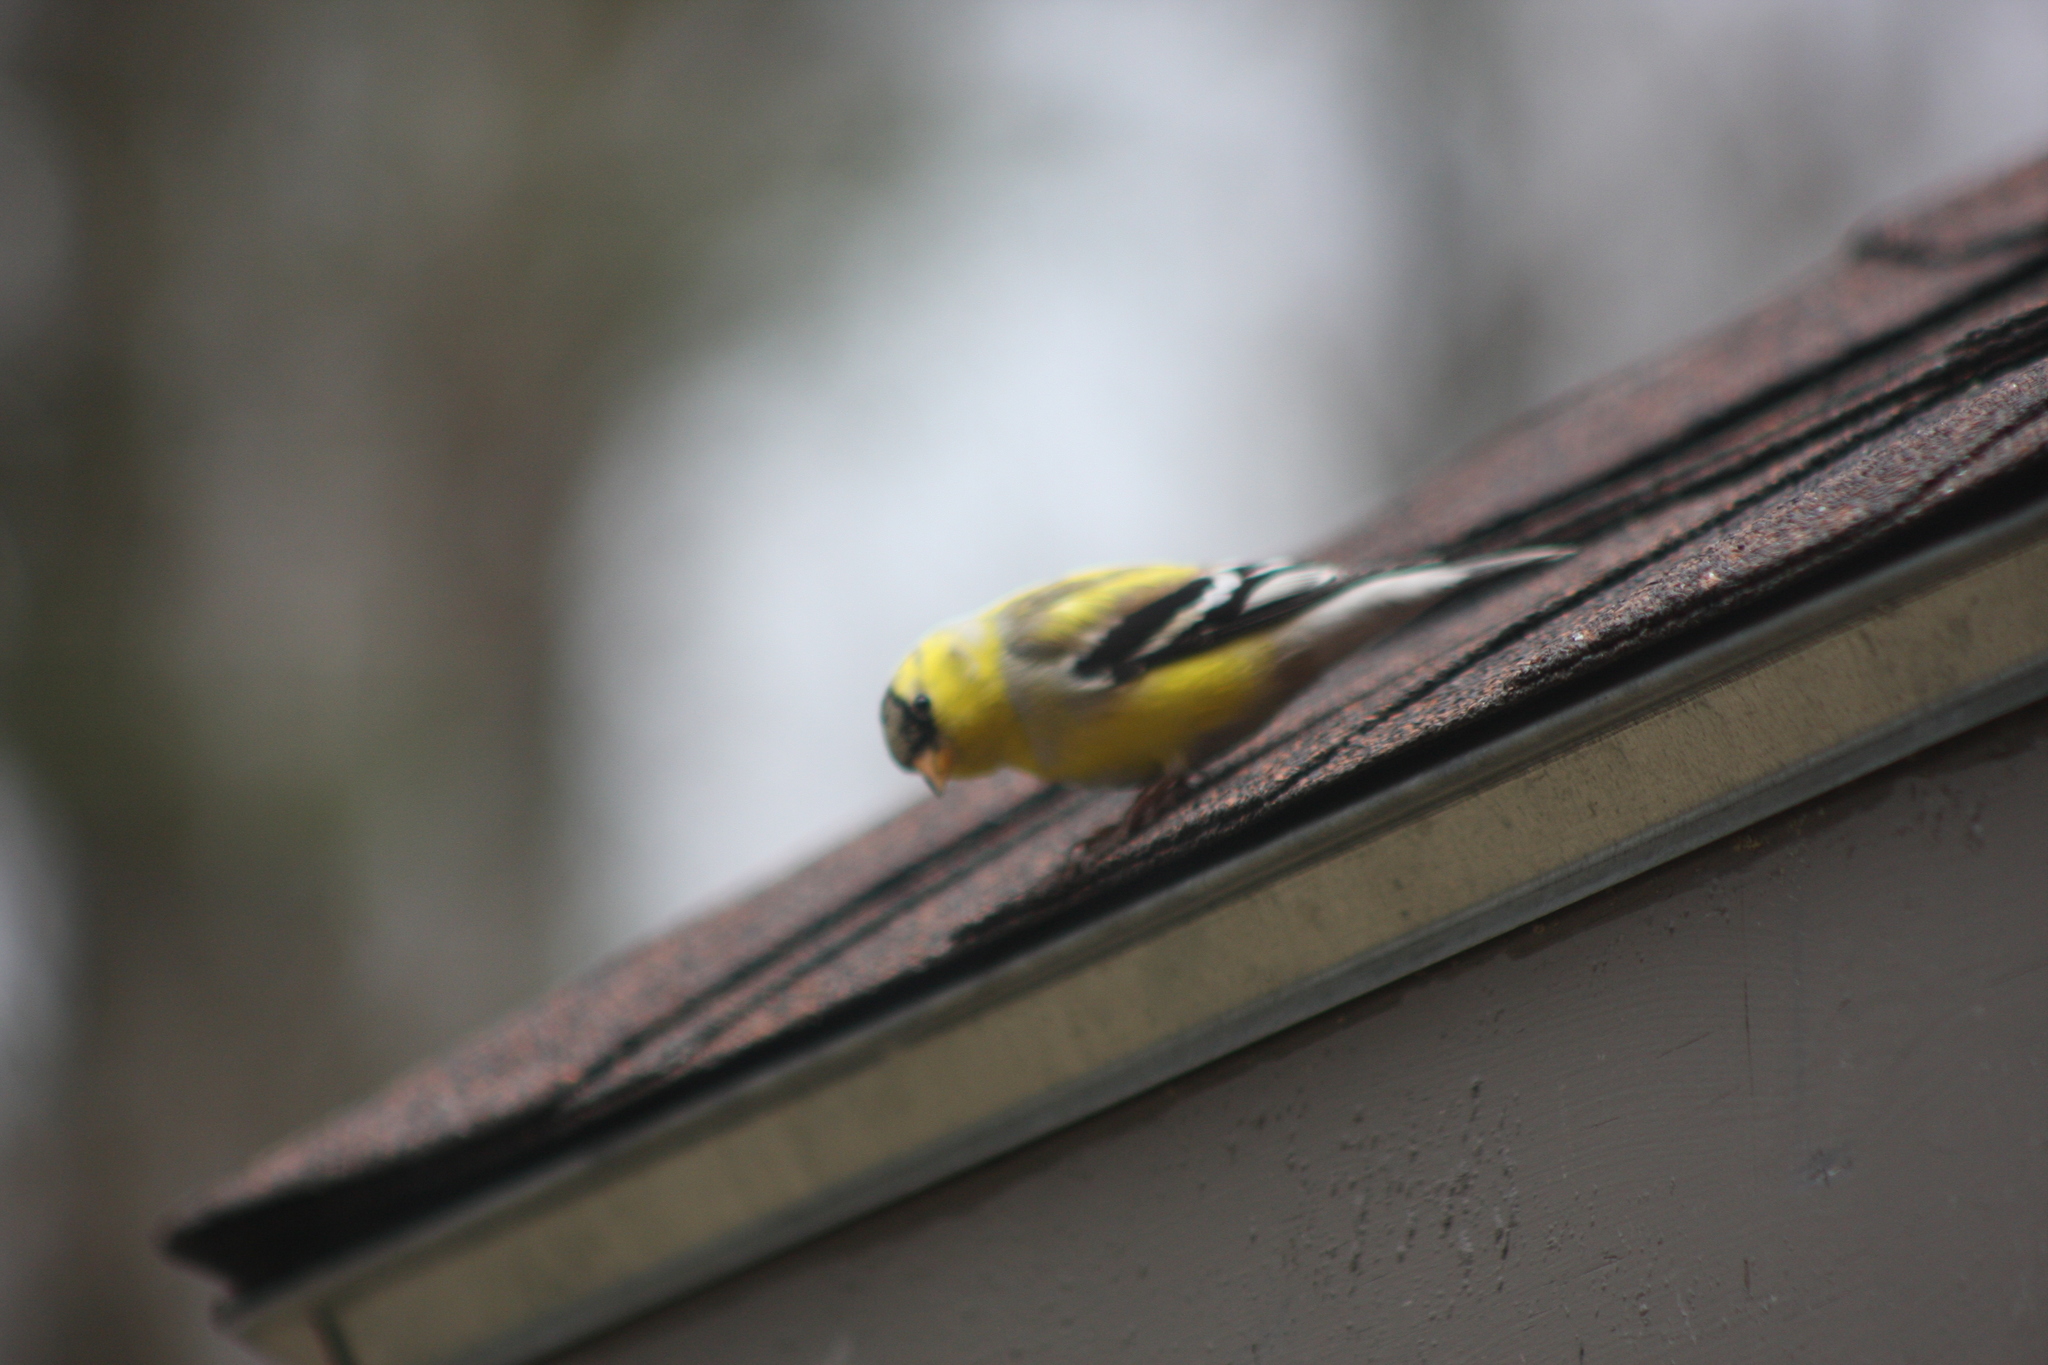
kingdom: Animalia
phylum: Chordata
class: Aves
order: Passeriformes
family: Fringillidae
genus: Spinus
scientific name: Spinus tristis
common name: American goldfinch
